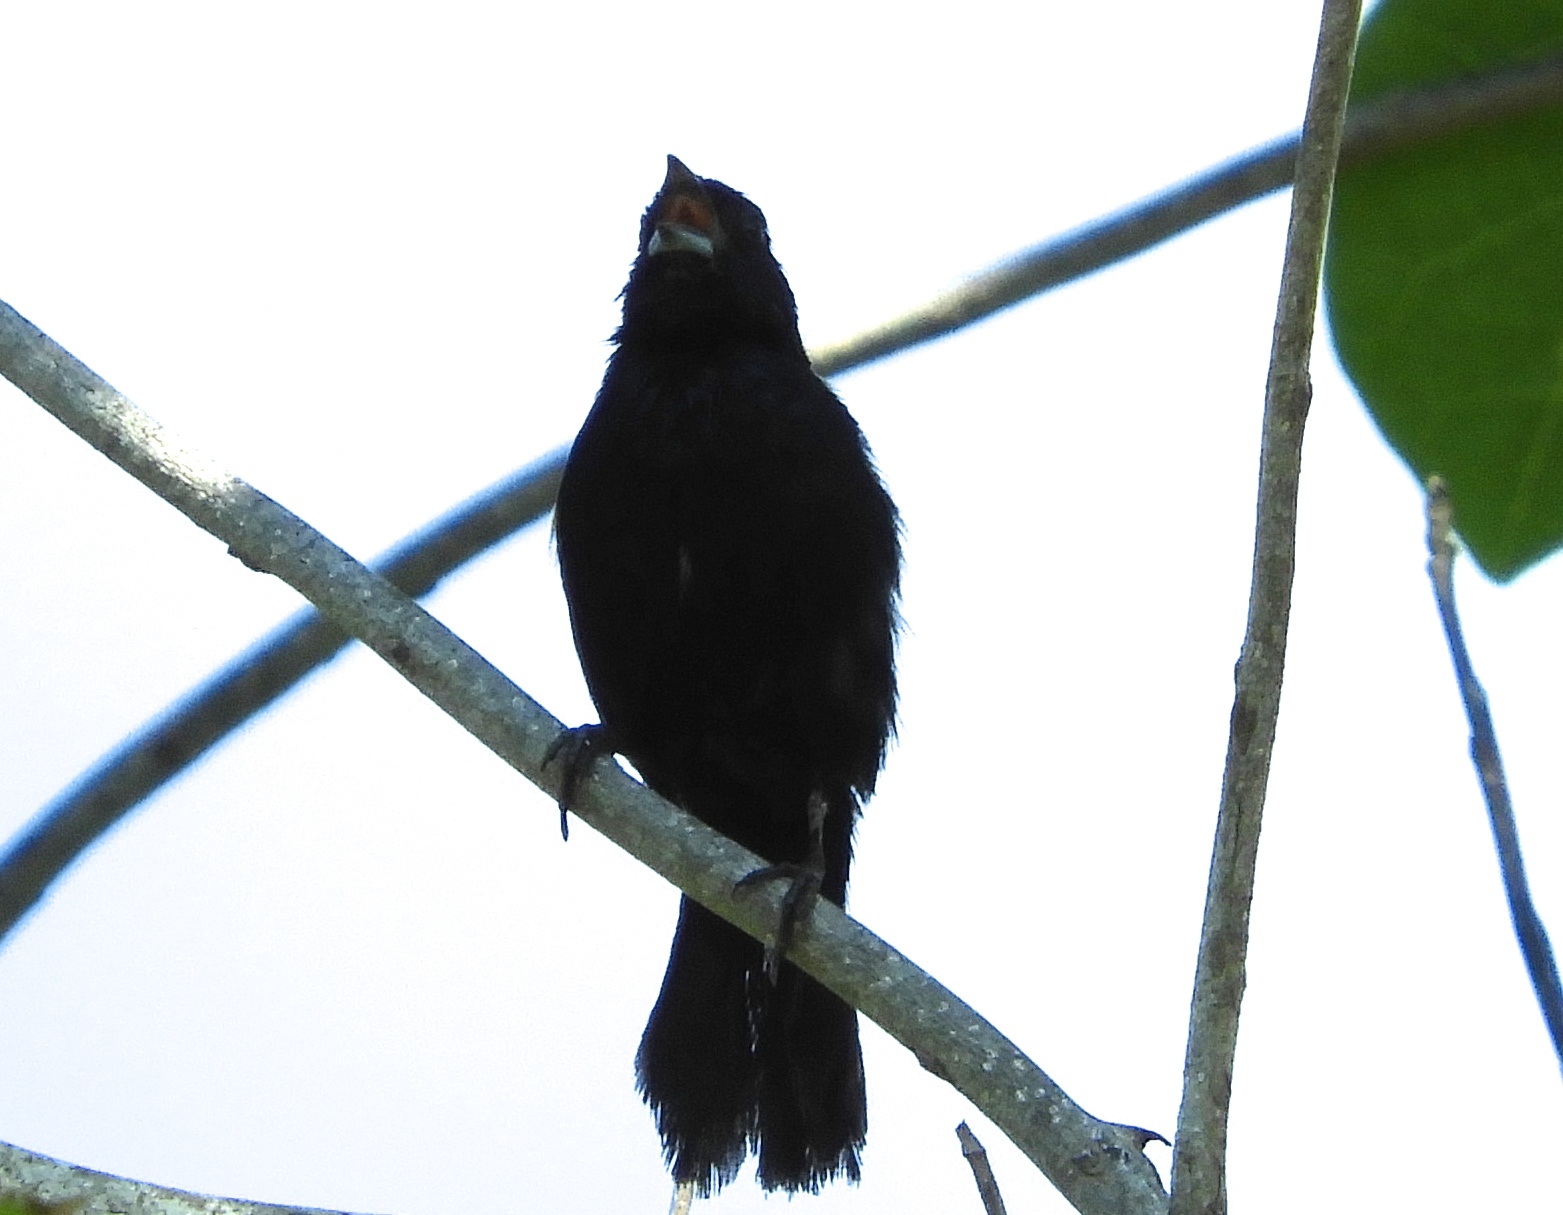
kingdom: Animalia
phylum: Chordata
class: Aves
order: Passeriformes
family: Thraupidae
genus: Volatinia
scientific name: Volatinia jacarina
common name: Blue-black grassquit
